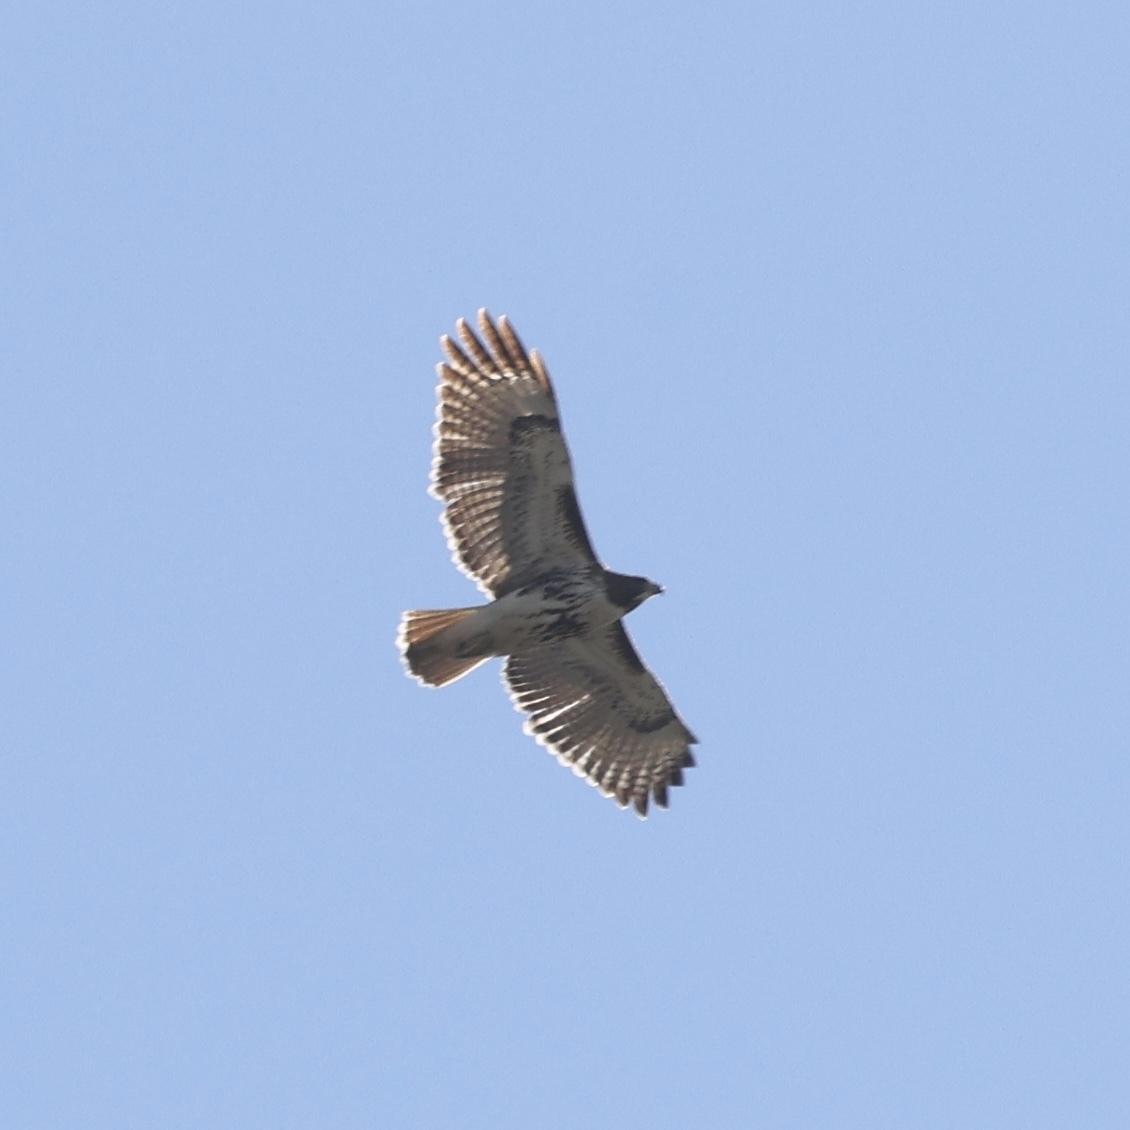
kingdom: Animalia
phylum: Chordata
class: Aves
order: Accipitriformes
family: Accipitridae
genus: Buteo
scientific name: Buteo jamaicensis
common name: Red-tailed hawk
